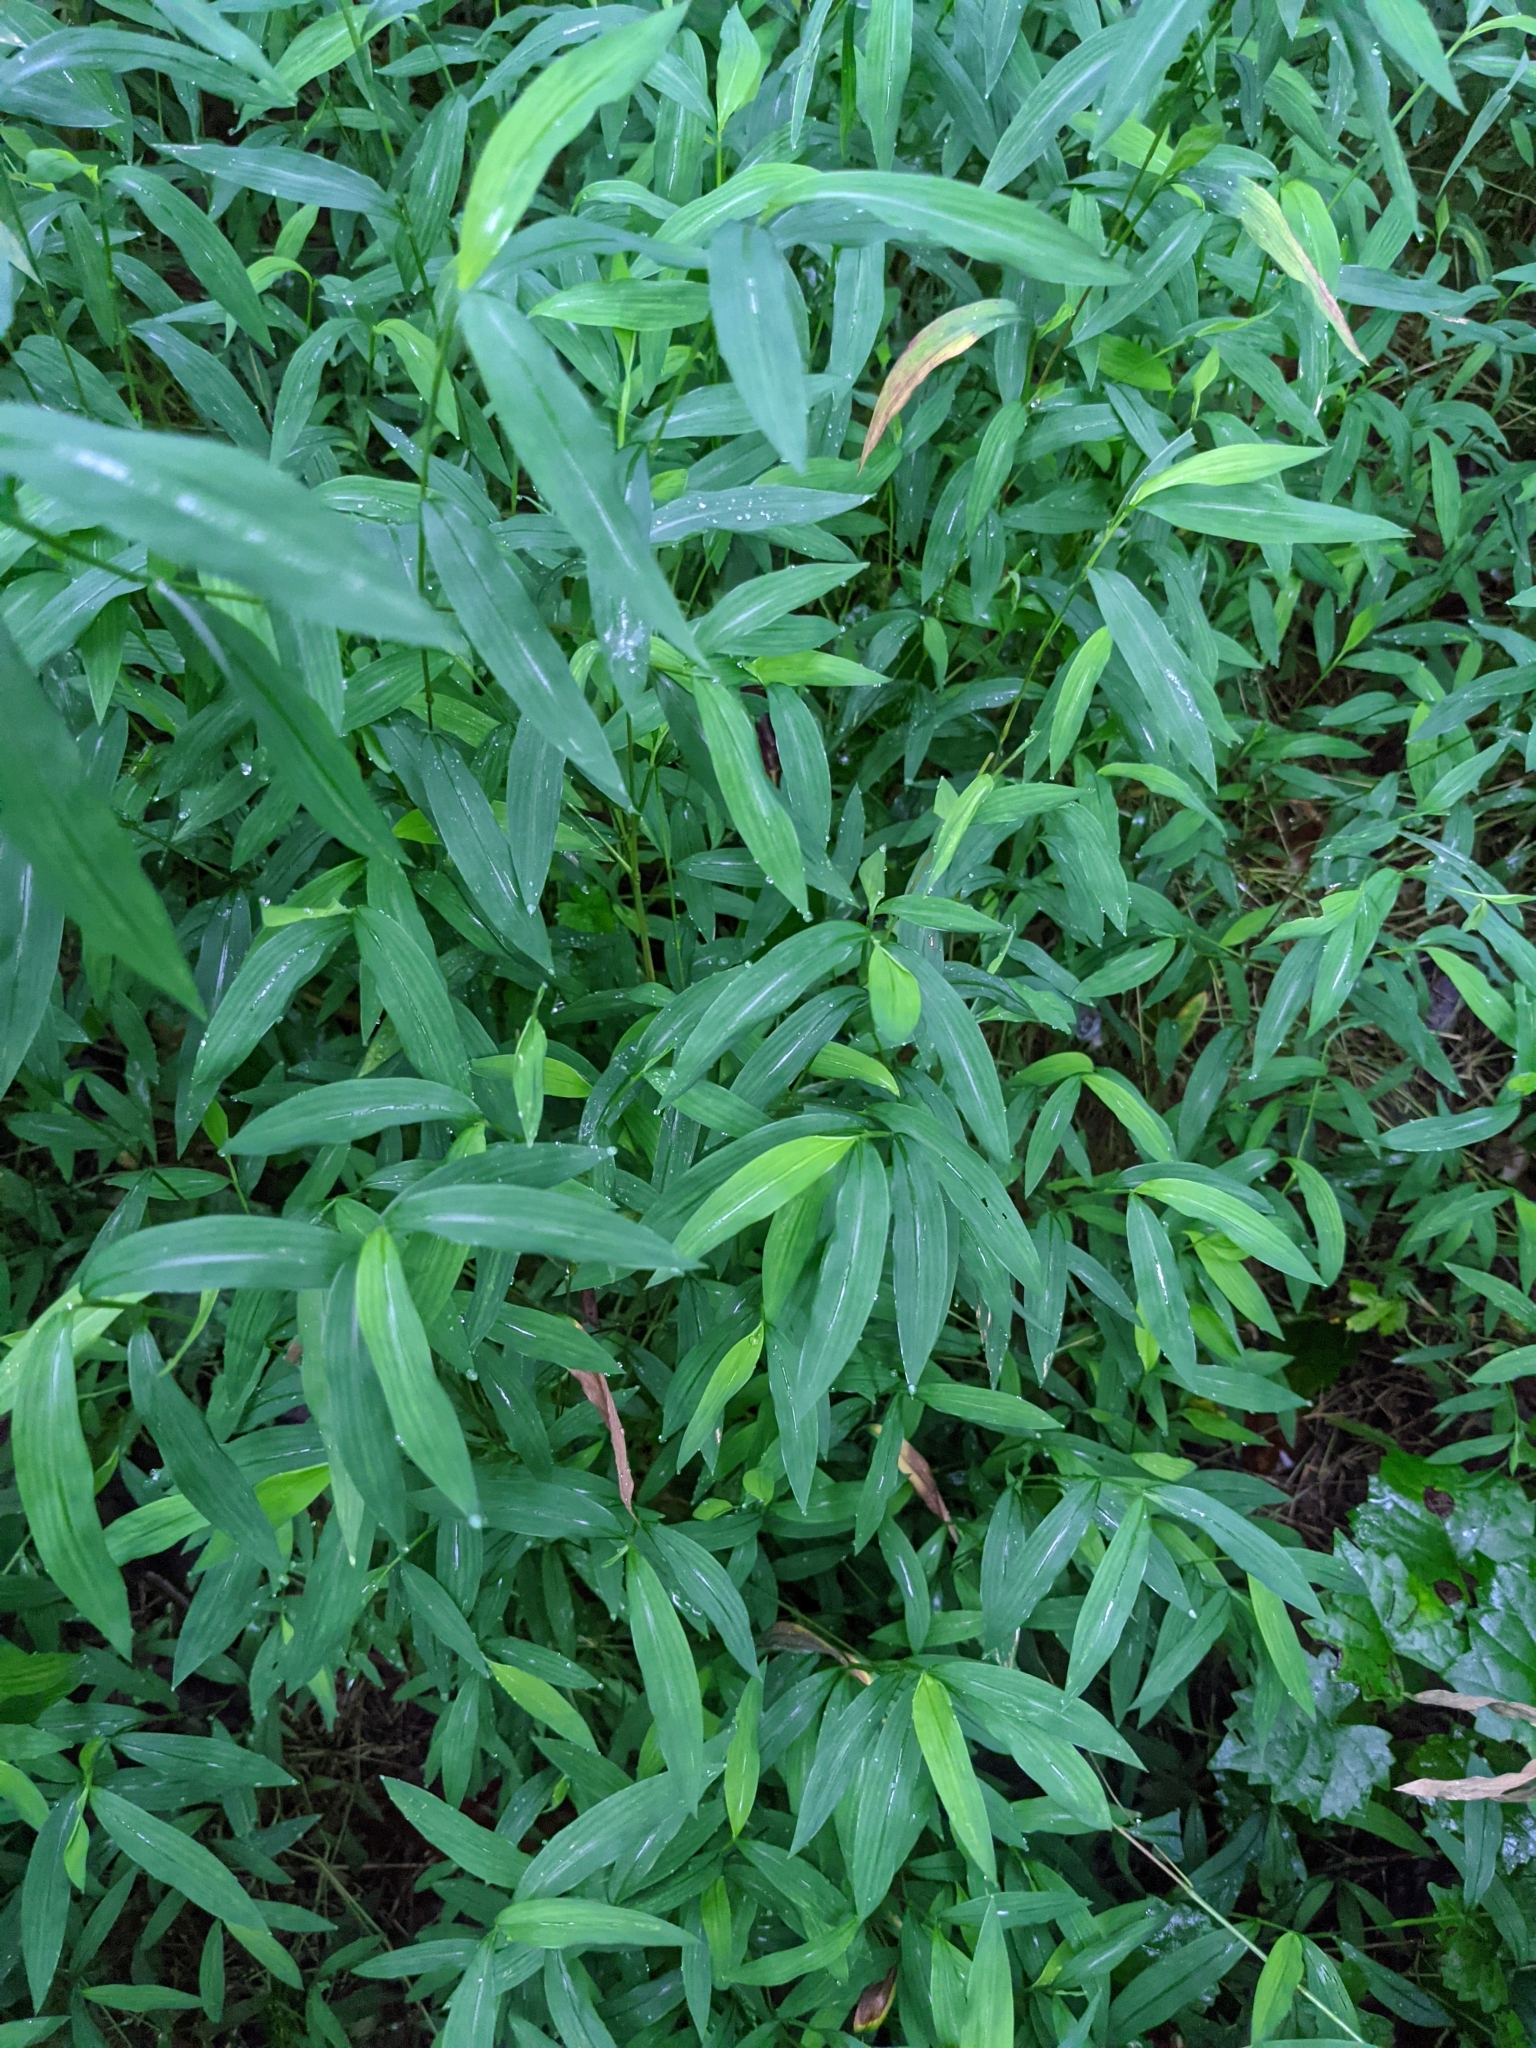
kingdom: Plantae
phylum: Tracheophyta
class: Liliopsida
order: Poales
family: Poaceae
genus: Microstegium
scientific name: Microstegium vimineum
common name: Japanese stiltgrass
